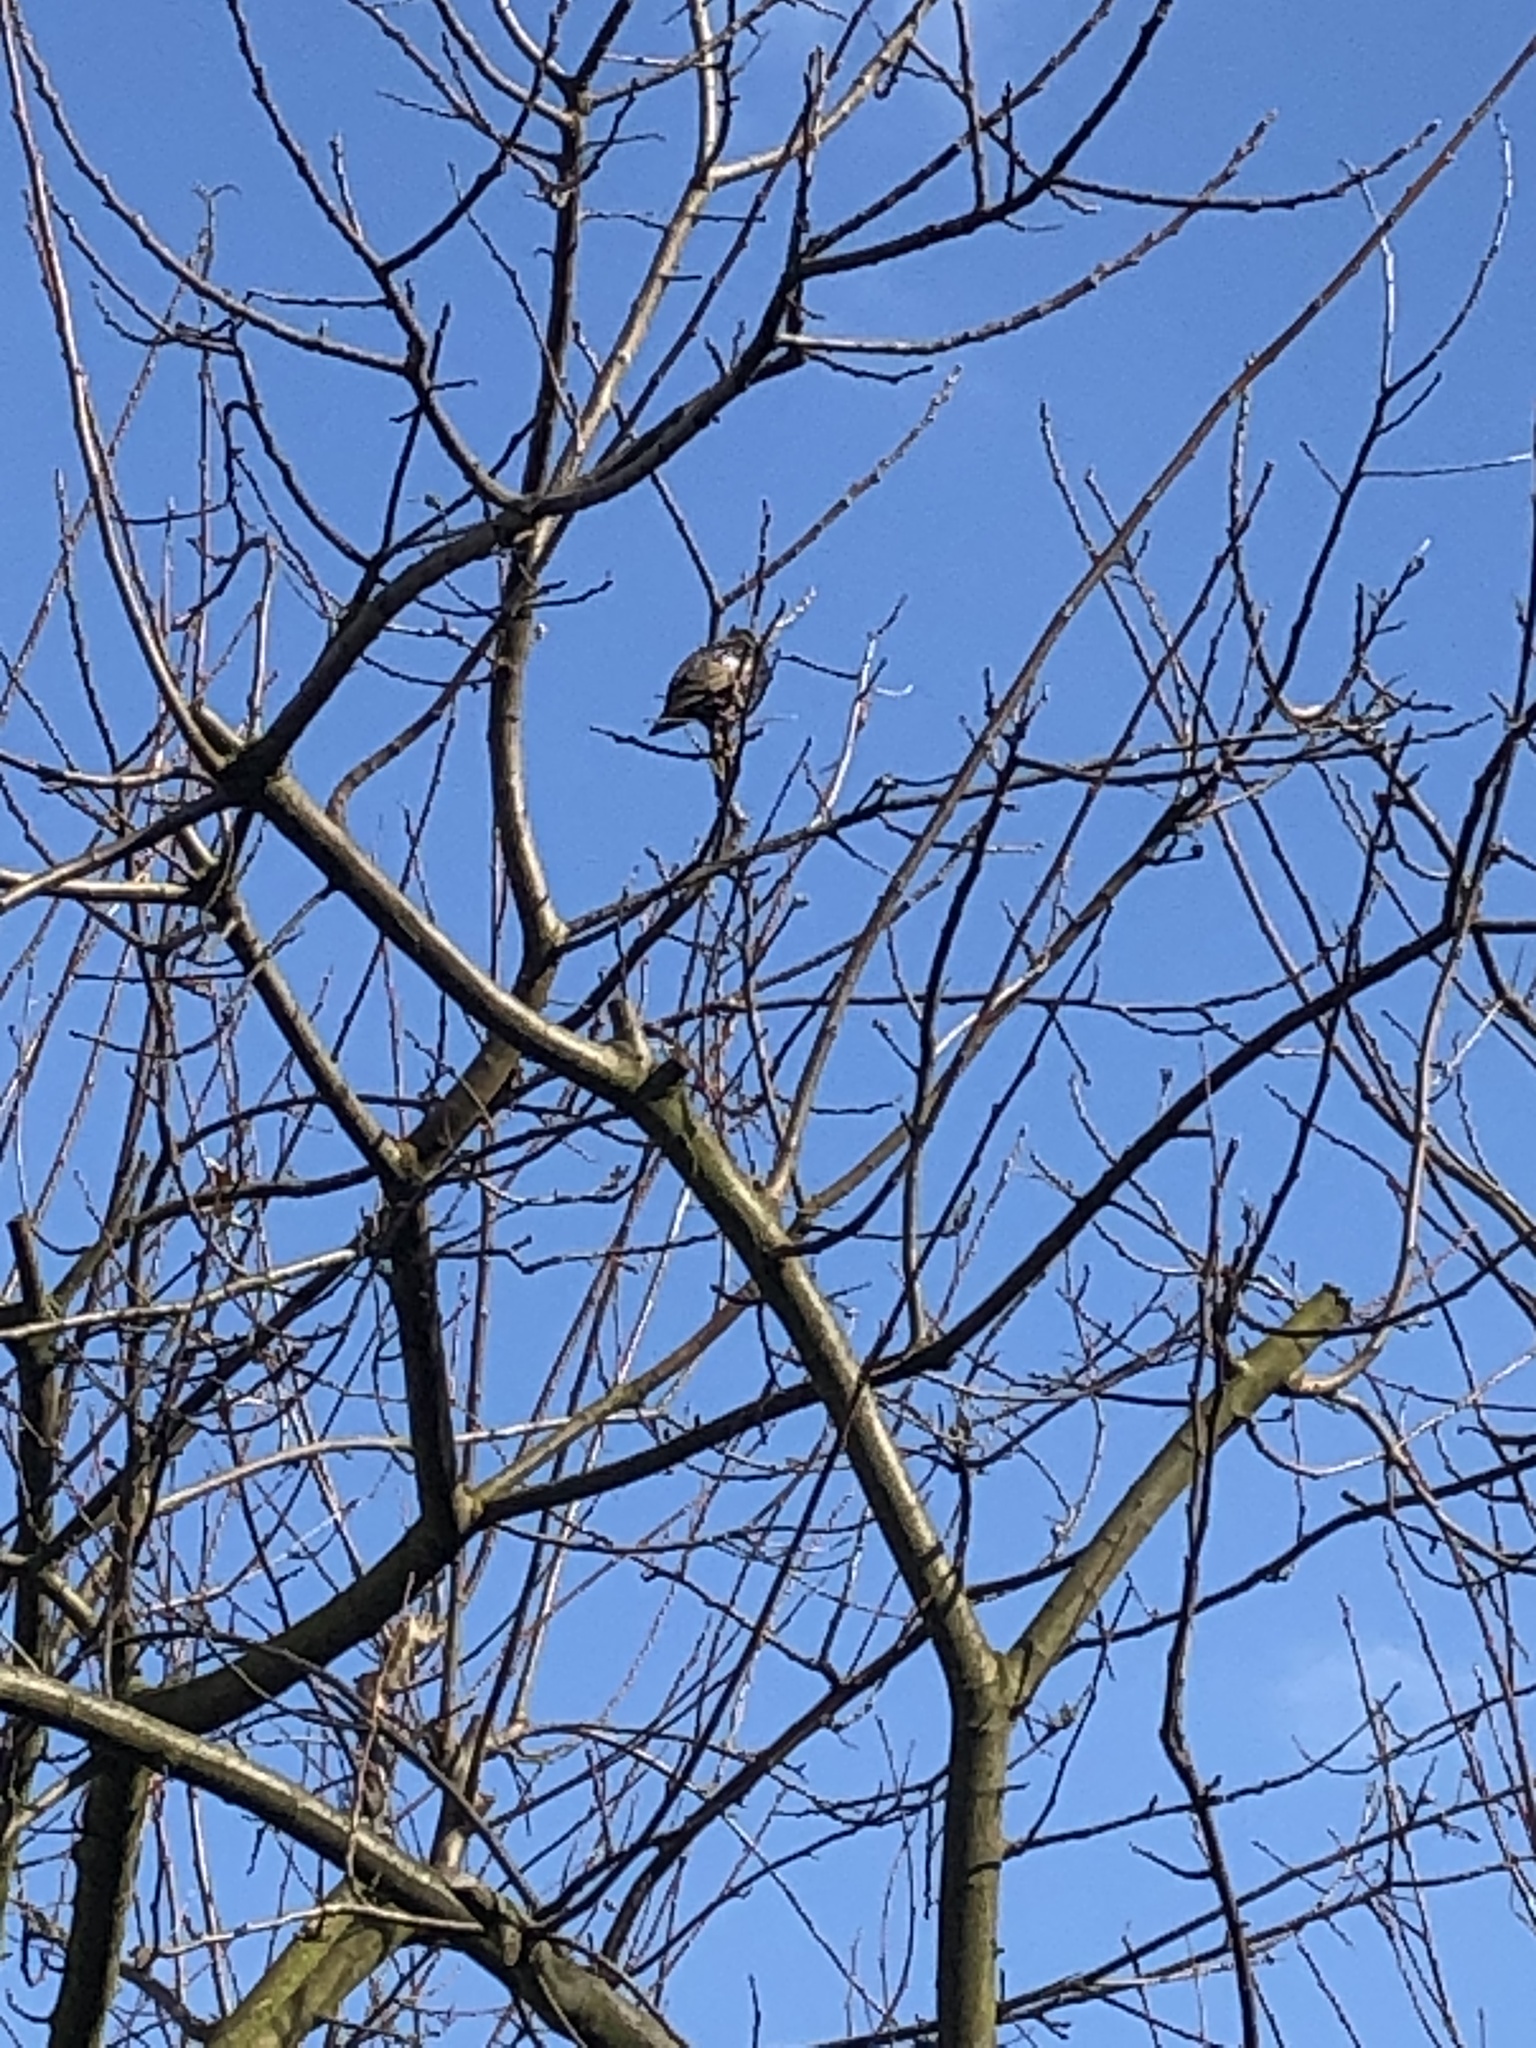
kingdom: Animalia
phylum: Chordata
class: Aves
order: Passeriformes
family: Sturnidae
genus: Sturnus
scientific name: Sturnus vulgaris
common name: Common starling
